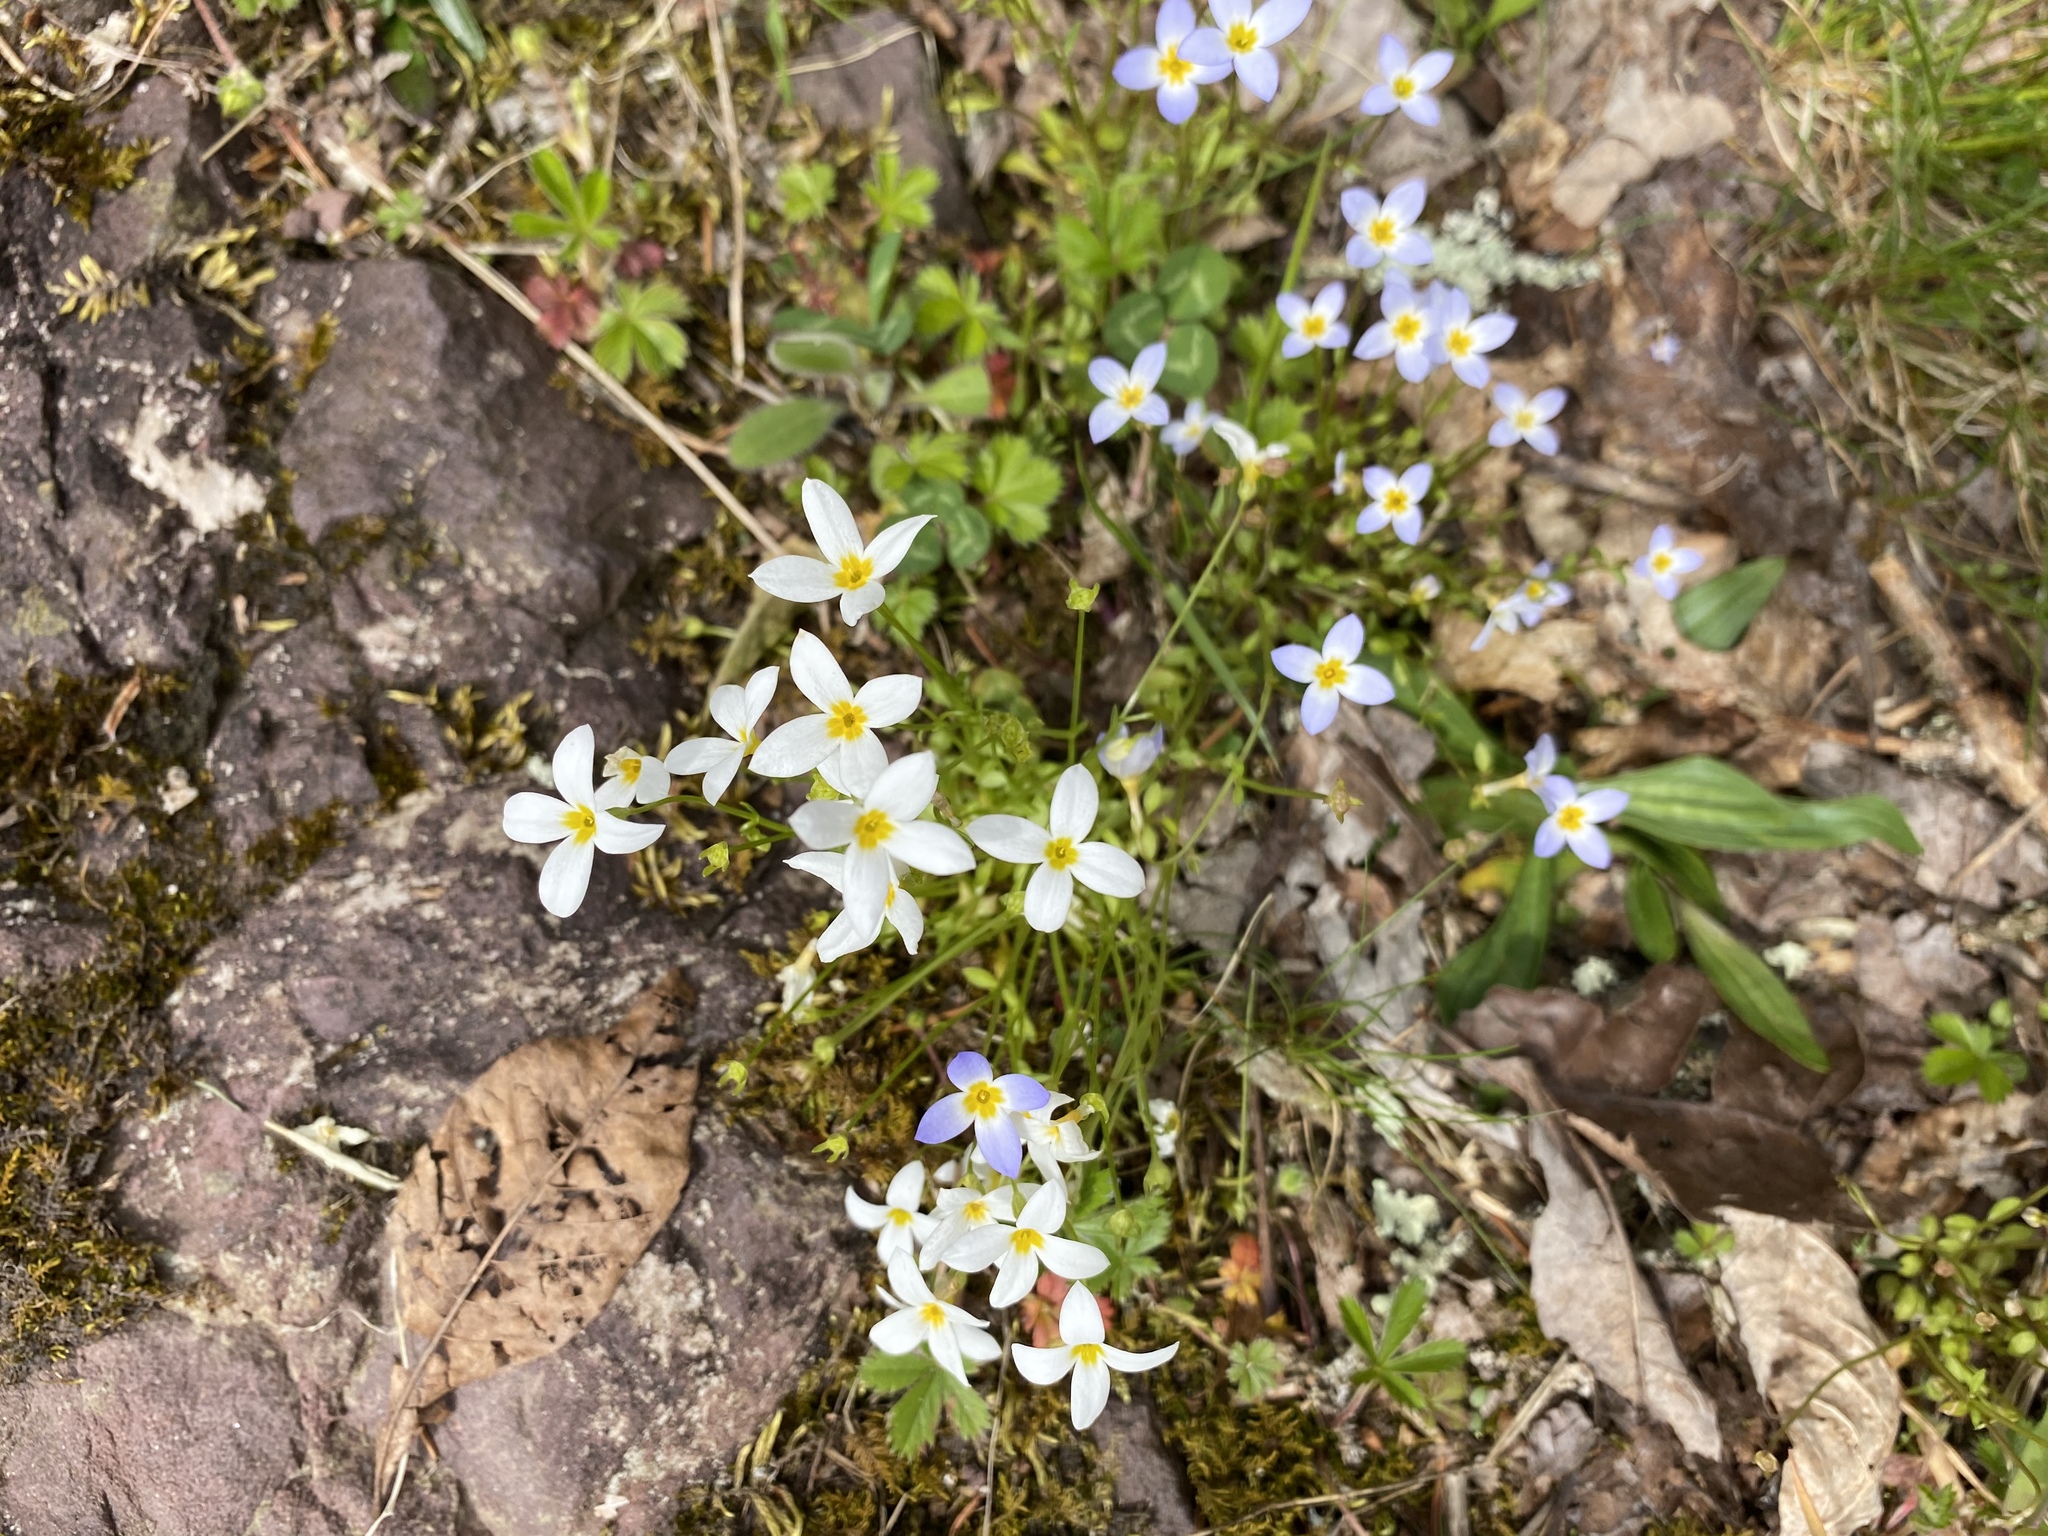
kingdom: Plantae
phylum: Tracheophyta
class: Magnoliopsida
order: Gentianales
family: Rubiaceae
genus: Houstonia
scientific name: Houstonia caerulea
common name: Bluets
